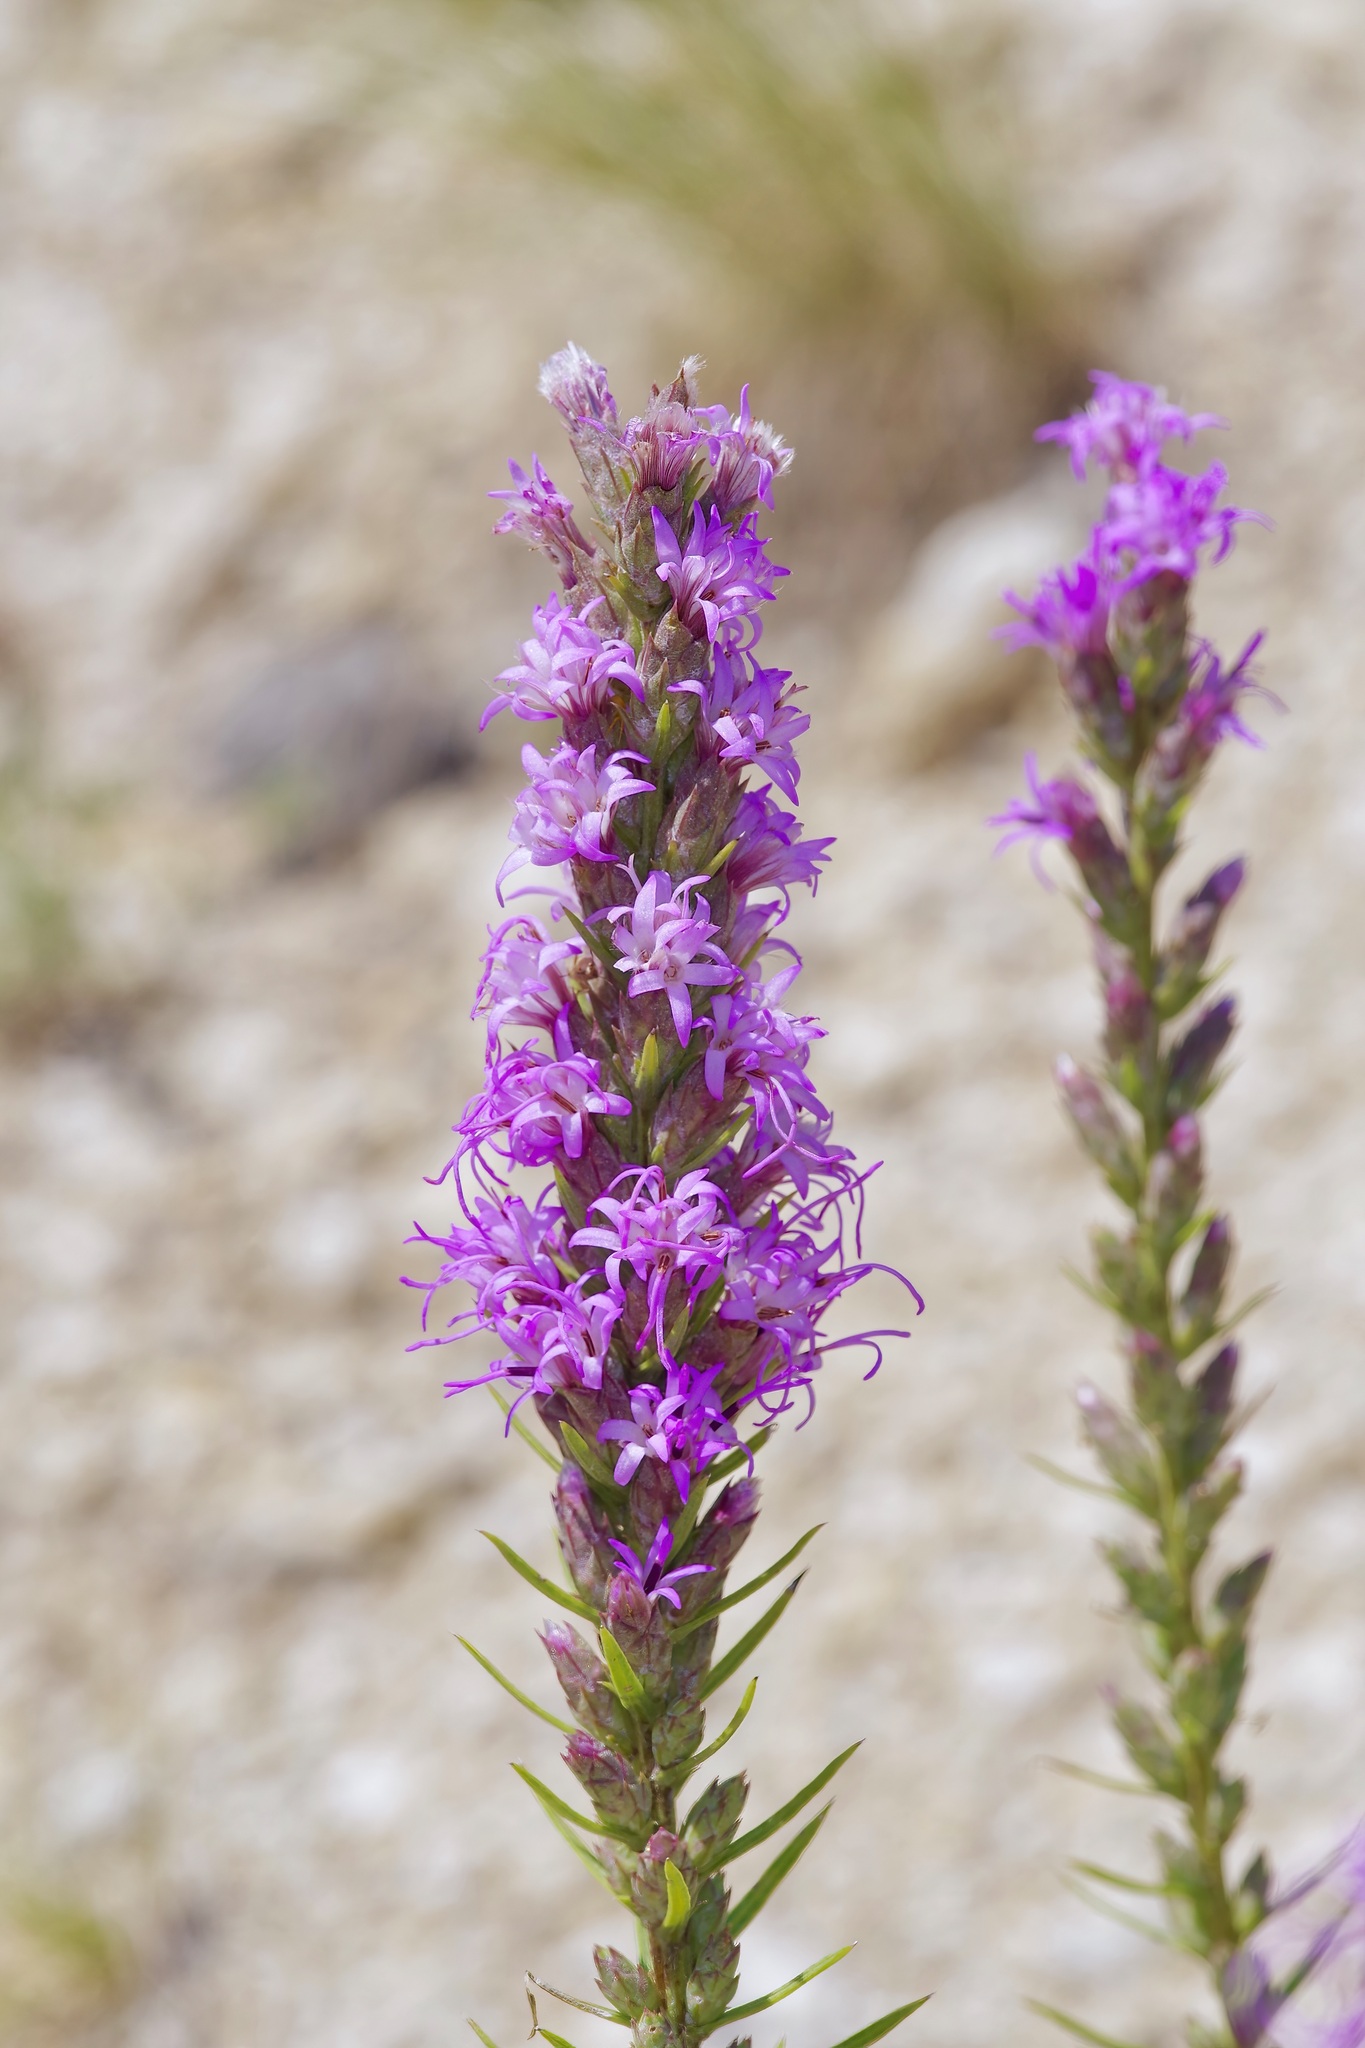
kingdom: Plantae
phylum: Tracheophyta
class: Magnoliopsida
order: Asterales
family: Asteraceae
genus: Liatris
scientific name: Liatris punctata
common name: Dotted gayfeather
